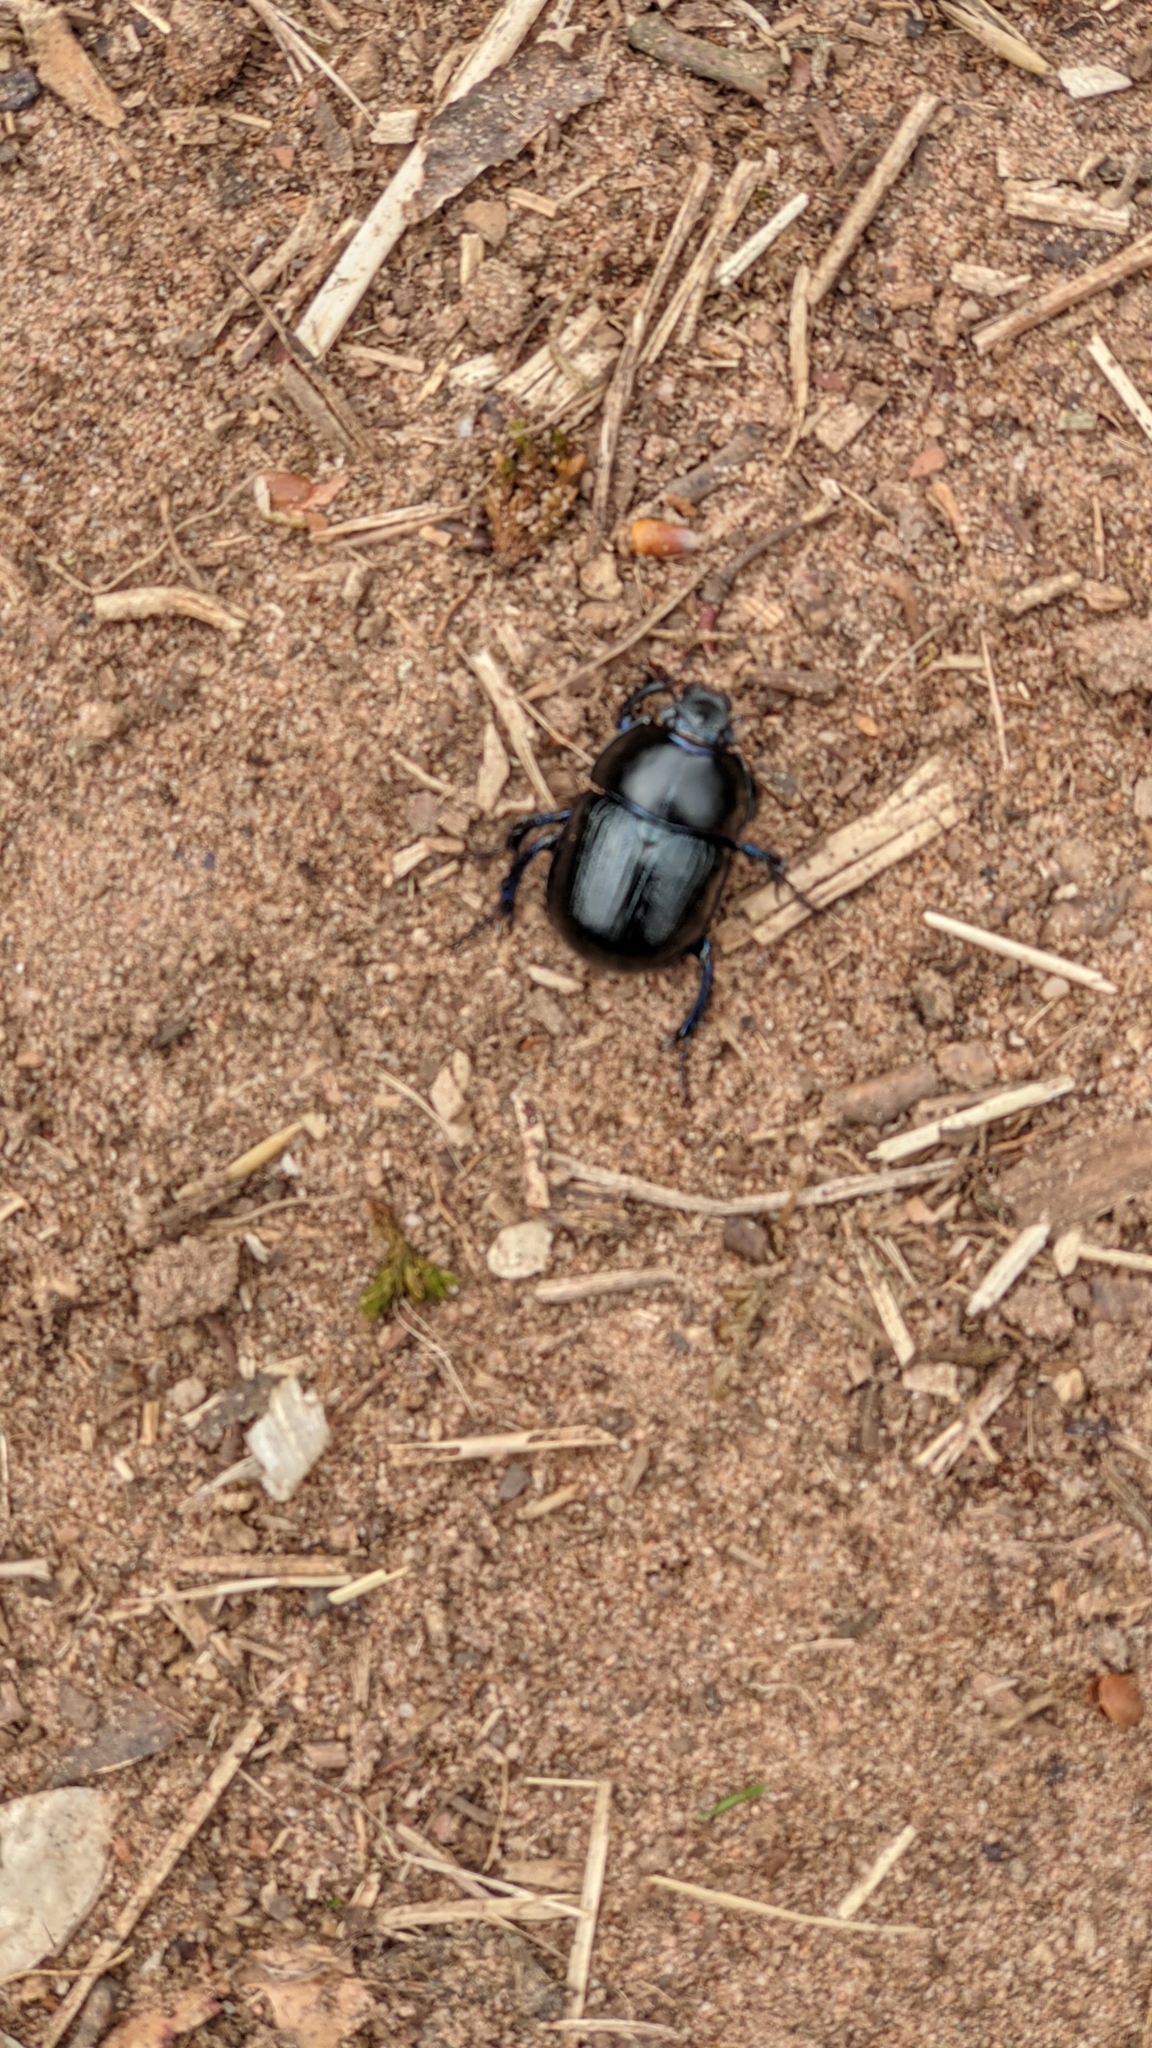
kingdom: Animalia
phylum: Arthropoda
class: Insecta
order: Coleoptera
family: Geotrupidae
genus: Anoplotrupes
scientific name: Anoplotrupes stercorosus
